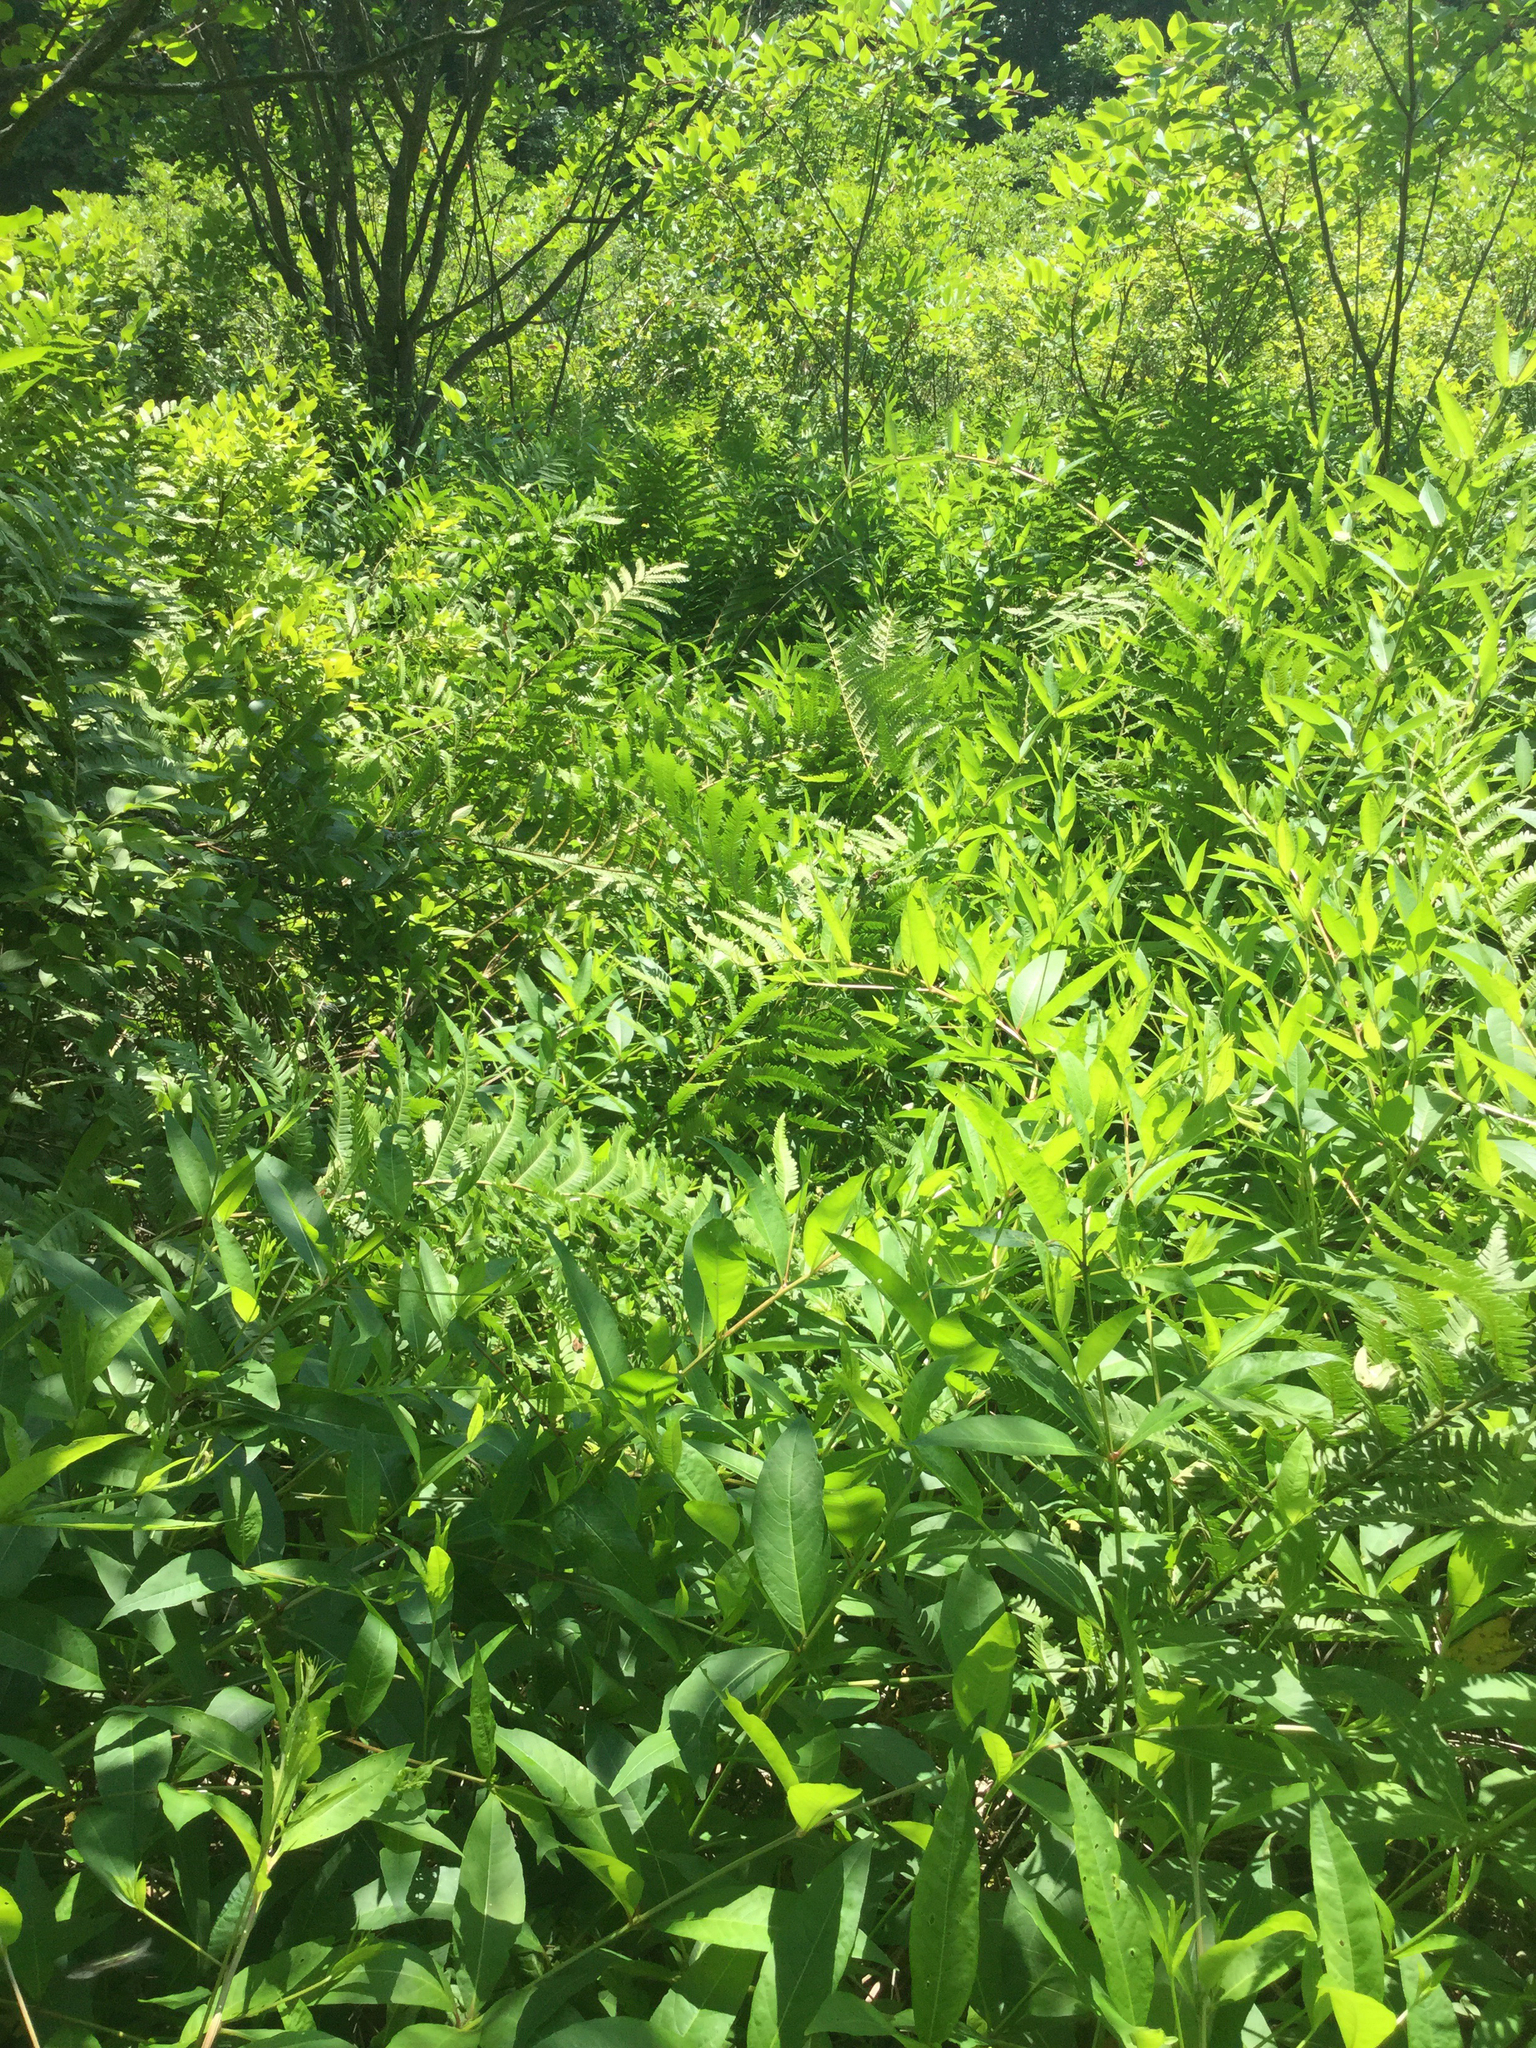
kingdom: Plantae
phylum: Tracheophyta
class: Polypodiopsida
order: Polypodiales
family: Blechnaceae
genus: Anchistea
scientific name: Anchistea virginica
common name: Virginia chain fern
